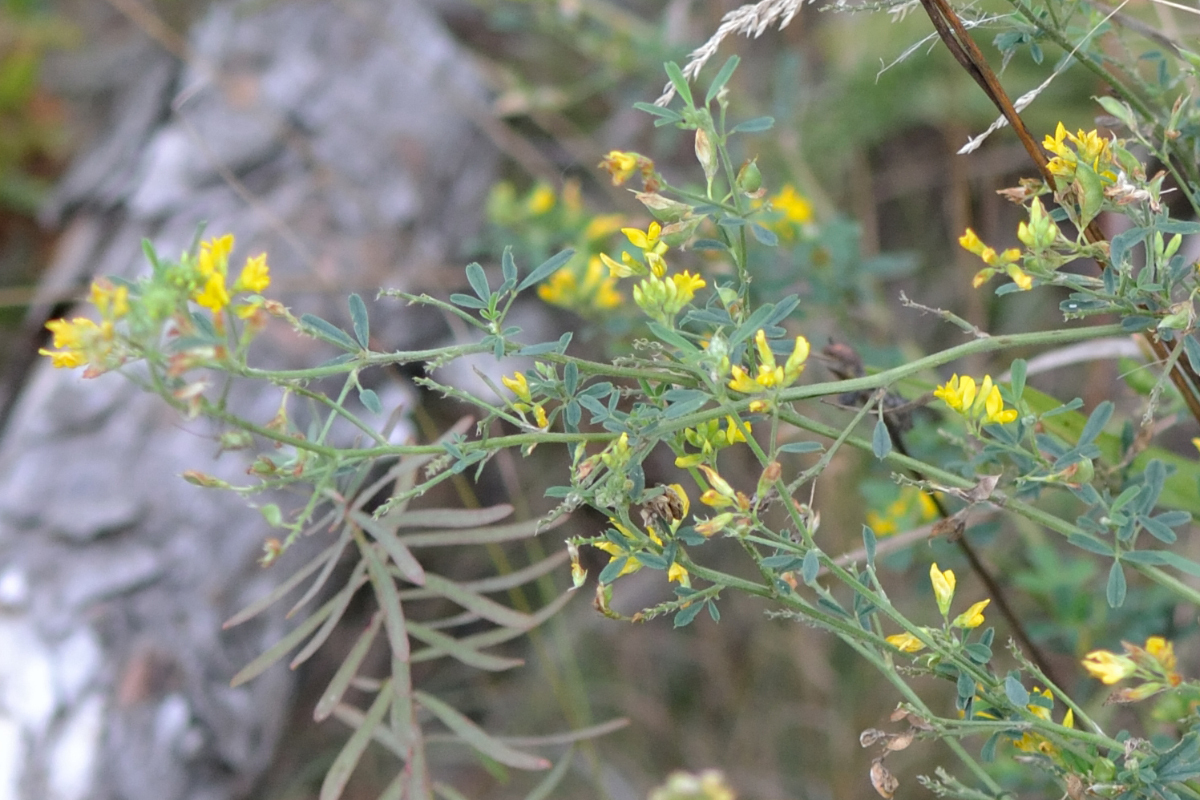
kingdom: Plantae
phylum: Tracheophyta
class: Magnoliopsida
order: Fabales
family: Fabaceae
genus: Medicago
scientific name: Medicago falcata
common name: Sickle medick
